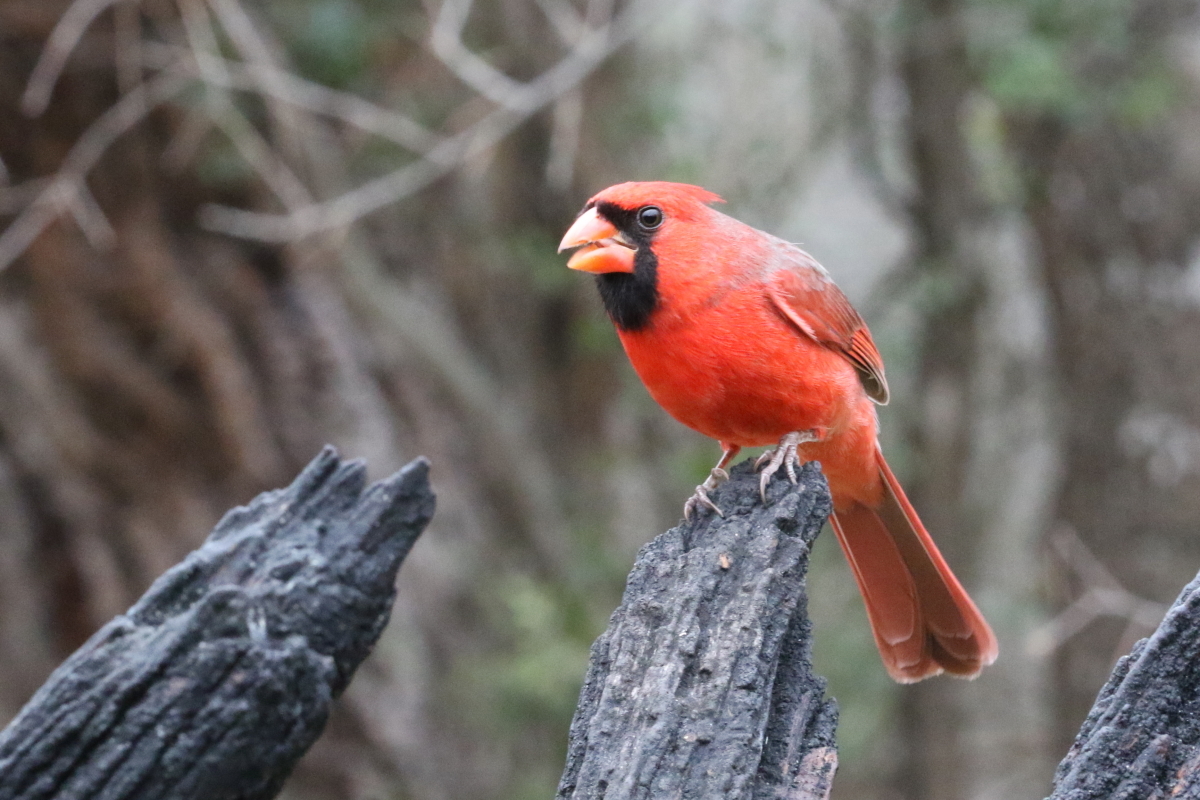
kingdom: Animalia
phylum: Chordata
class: Aves
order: Passeriformes
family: Cardinalidae
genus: Cardinalis
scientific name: Cardinalis cardinalis
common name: Northern cardinal
